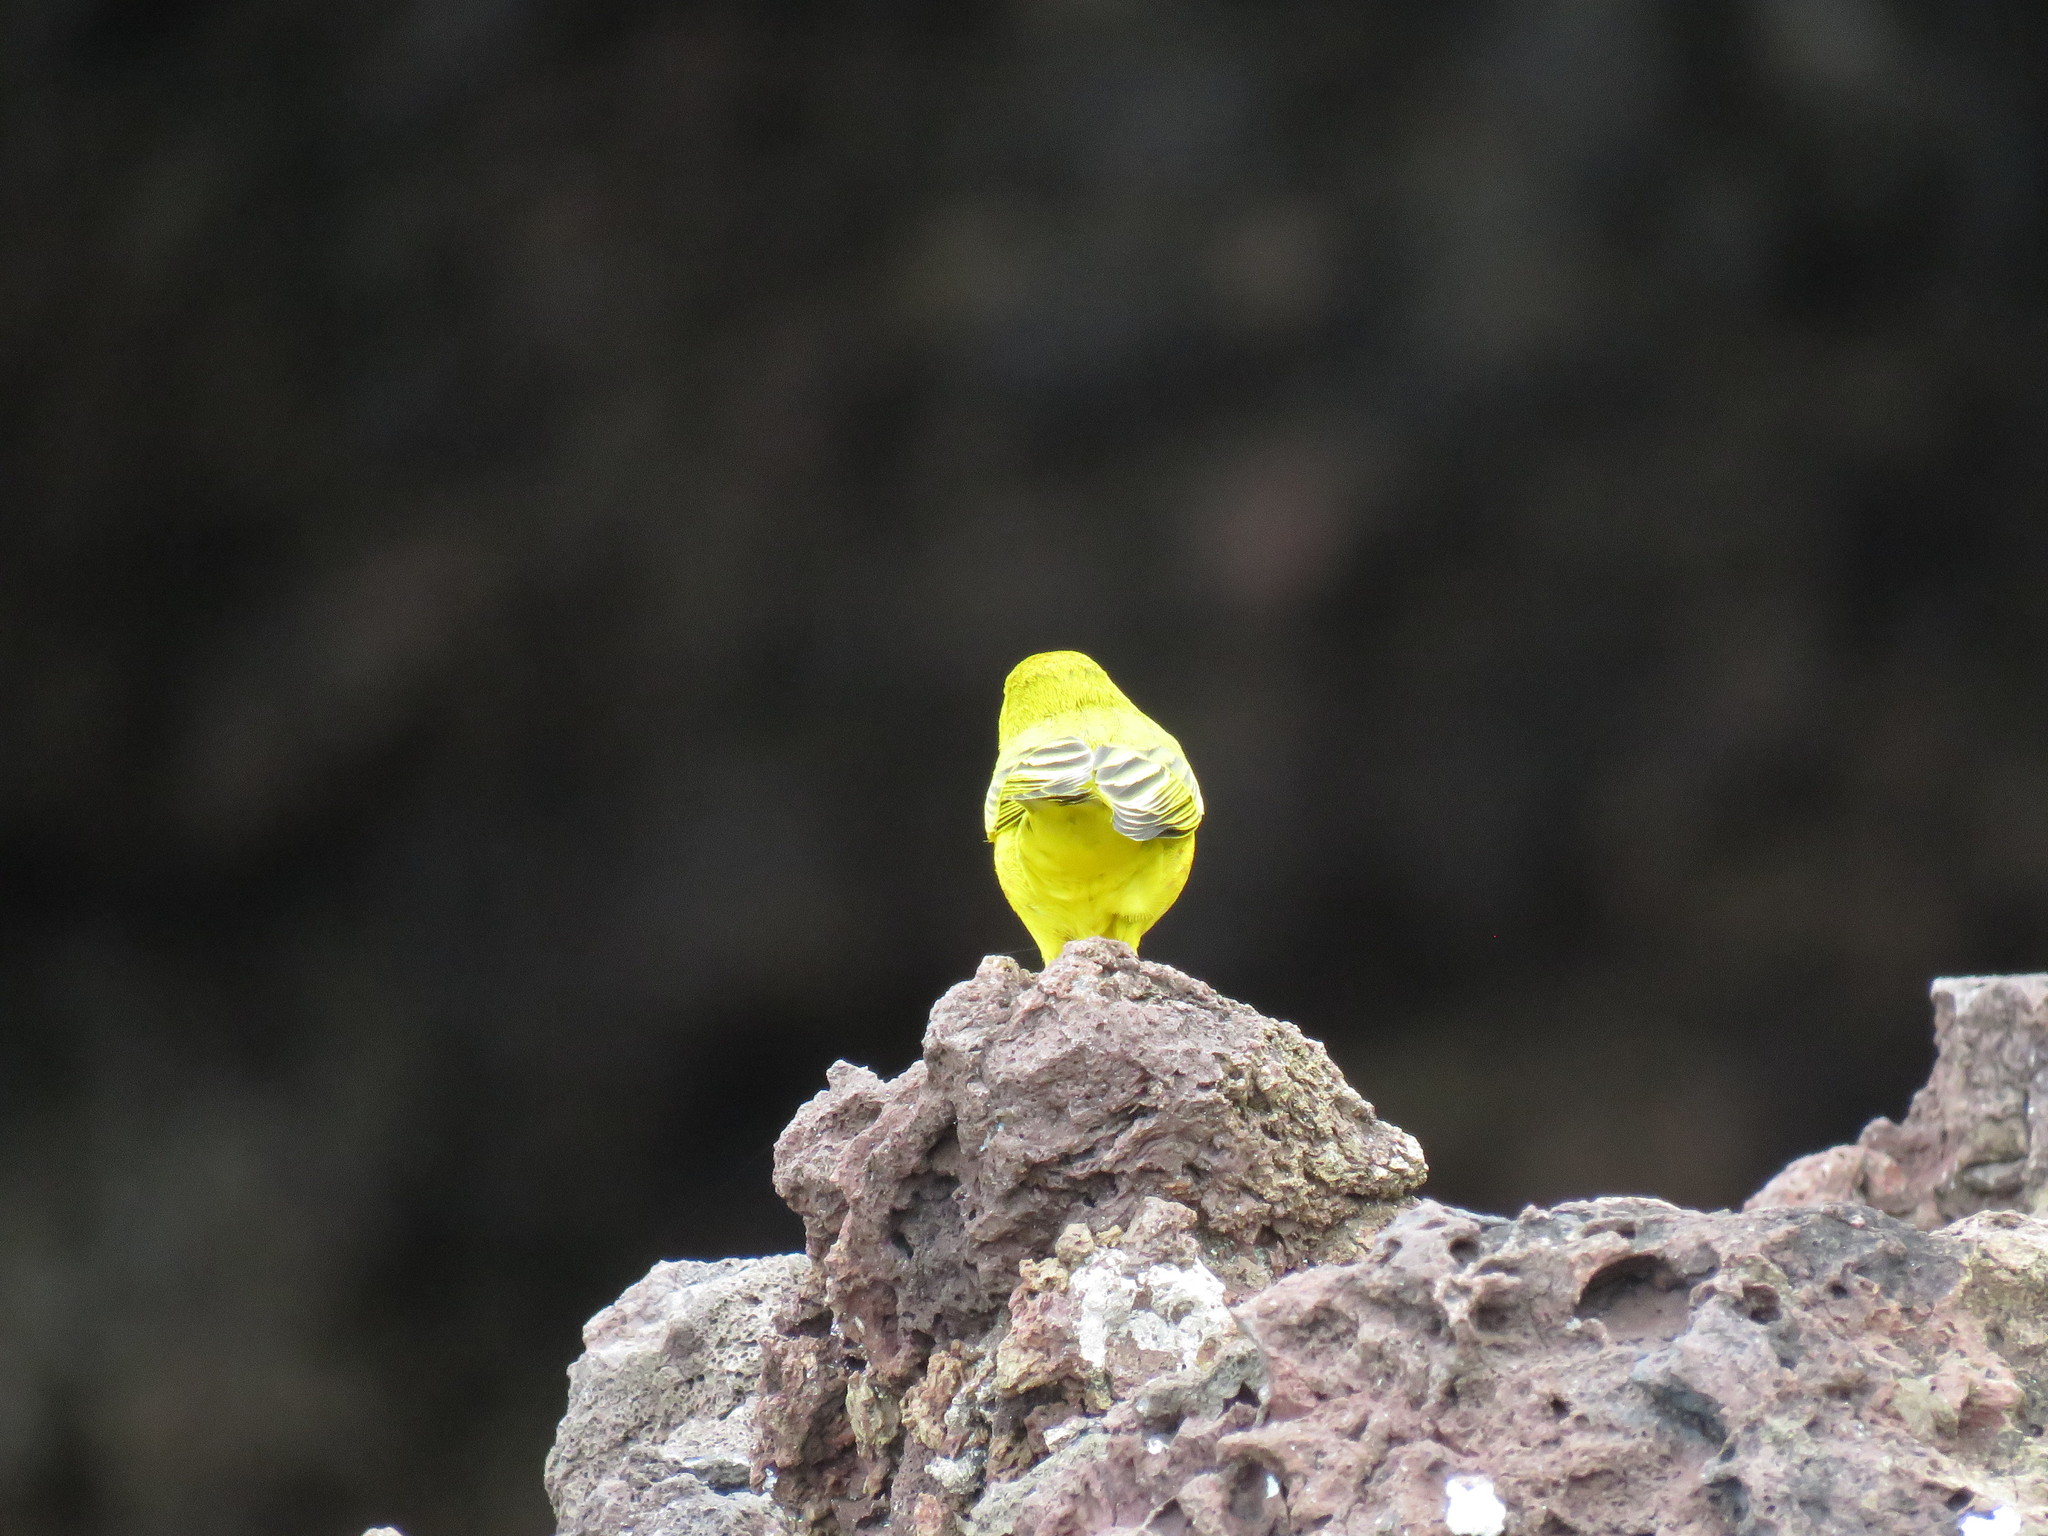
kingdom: Animalia
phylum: Chordata
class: Aves
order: Passeriformes
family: Parulidae
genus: Setophaga
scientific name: Setophaga petechia
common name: Yellow warbler
